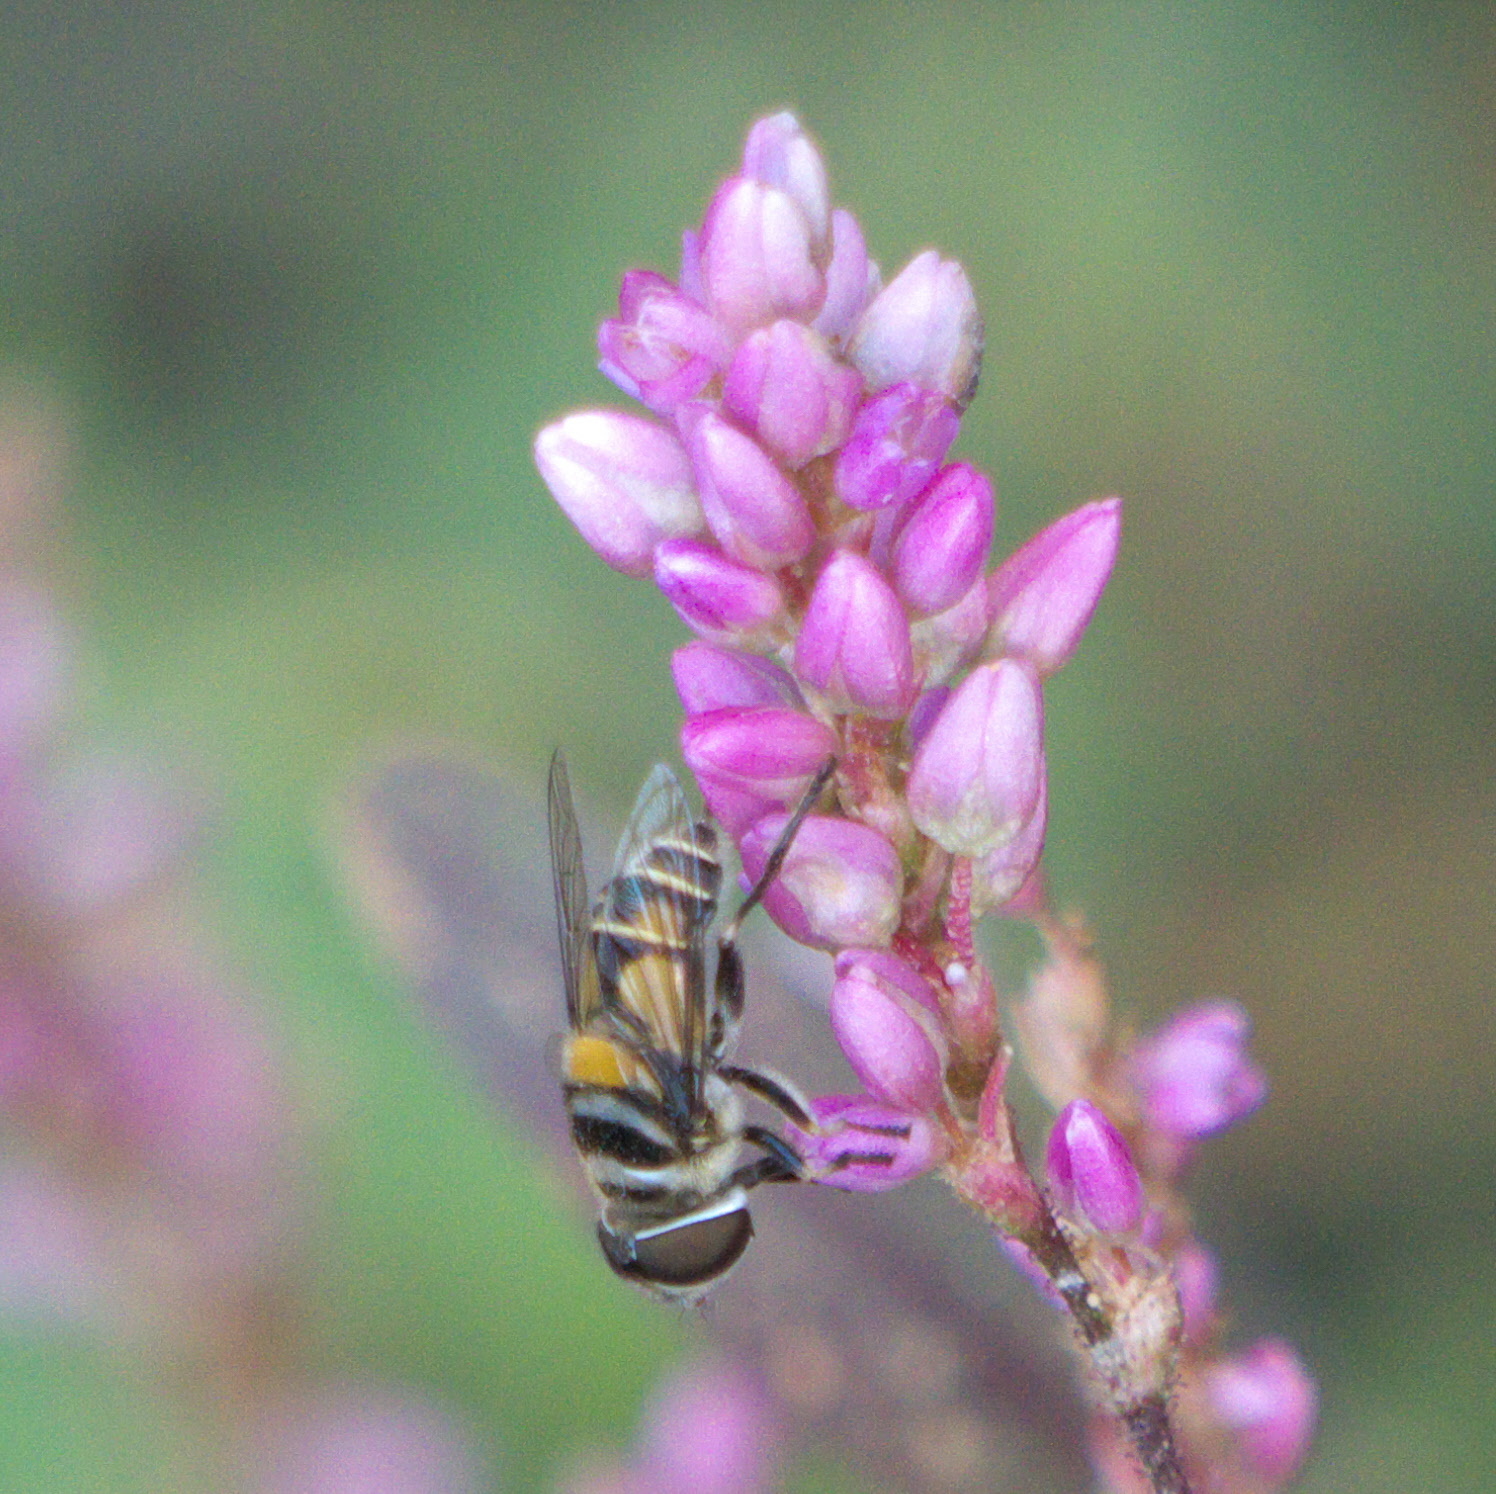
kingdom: Animalia
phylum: Arthropoda
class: Insecta
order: Diptera
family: Syrphidae
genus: Palpada
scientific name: Palpada agrorum
